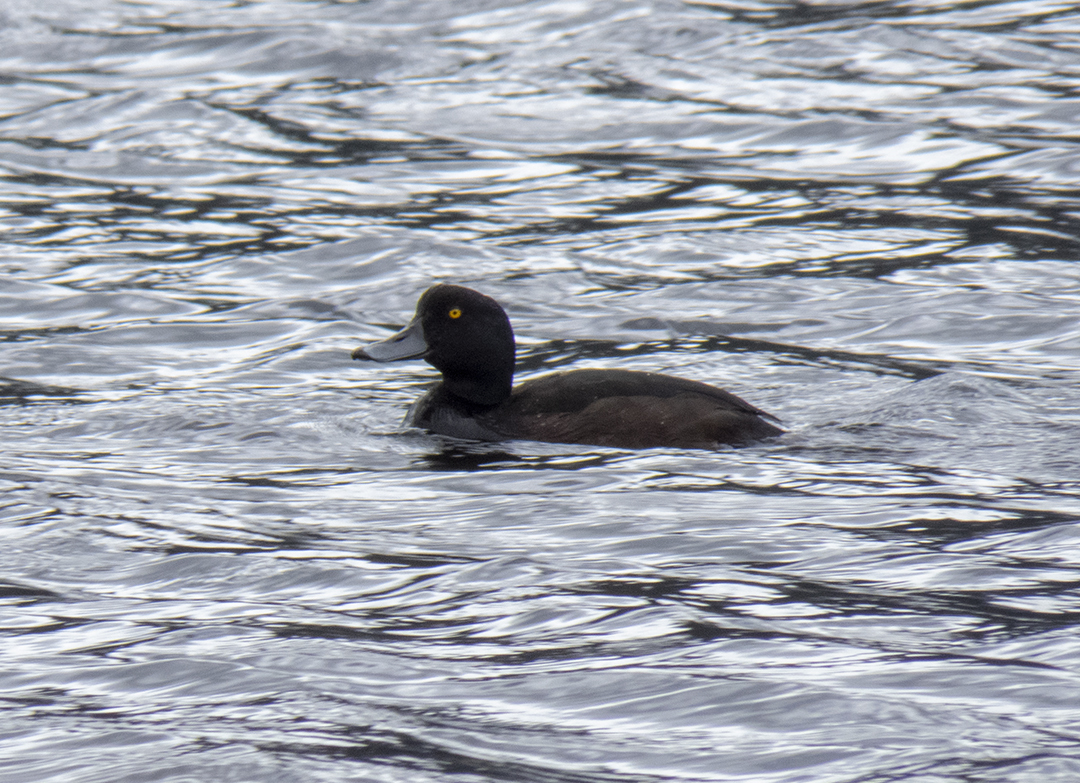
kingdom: Animalia
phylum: Chordata
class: Aves
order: Anseriformes
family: Anatidae
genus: Aythya
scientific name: Aythya novaeseelandiae
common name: New zealand scaup
